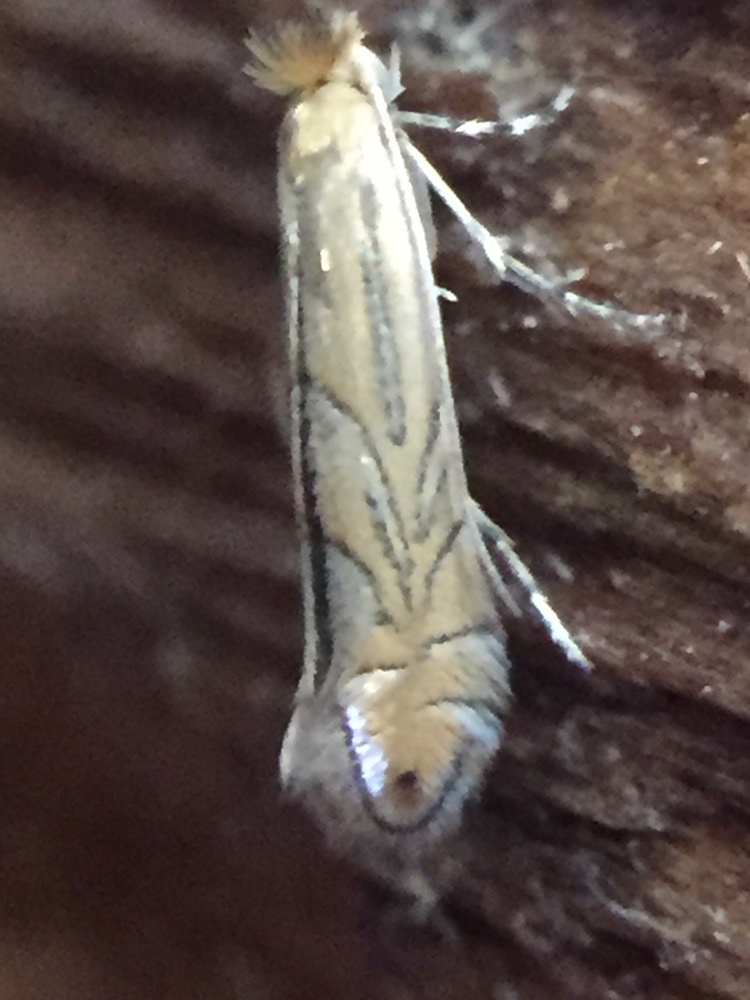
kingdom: Animalia
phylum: Arthropoda
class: Insecta
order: Lepidoptera
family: Gracillariidae
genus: Phyllonorycter
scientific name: Phyllonorycter messaniella
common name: Garden midget
